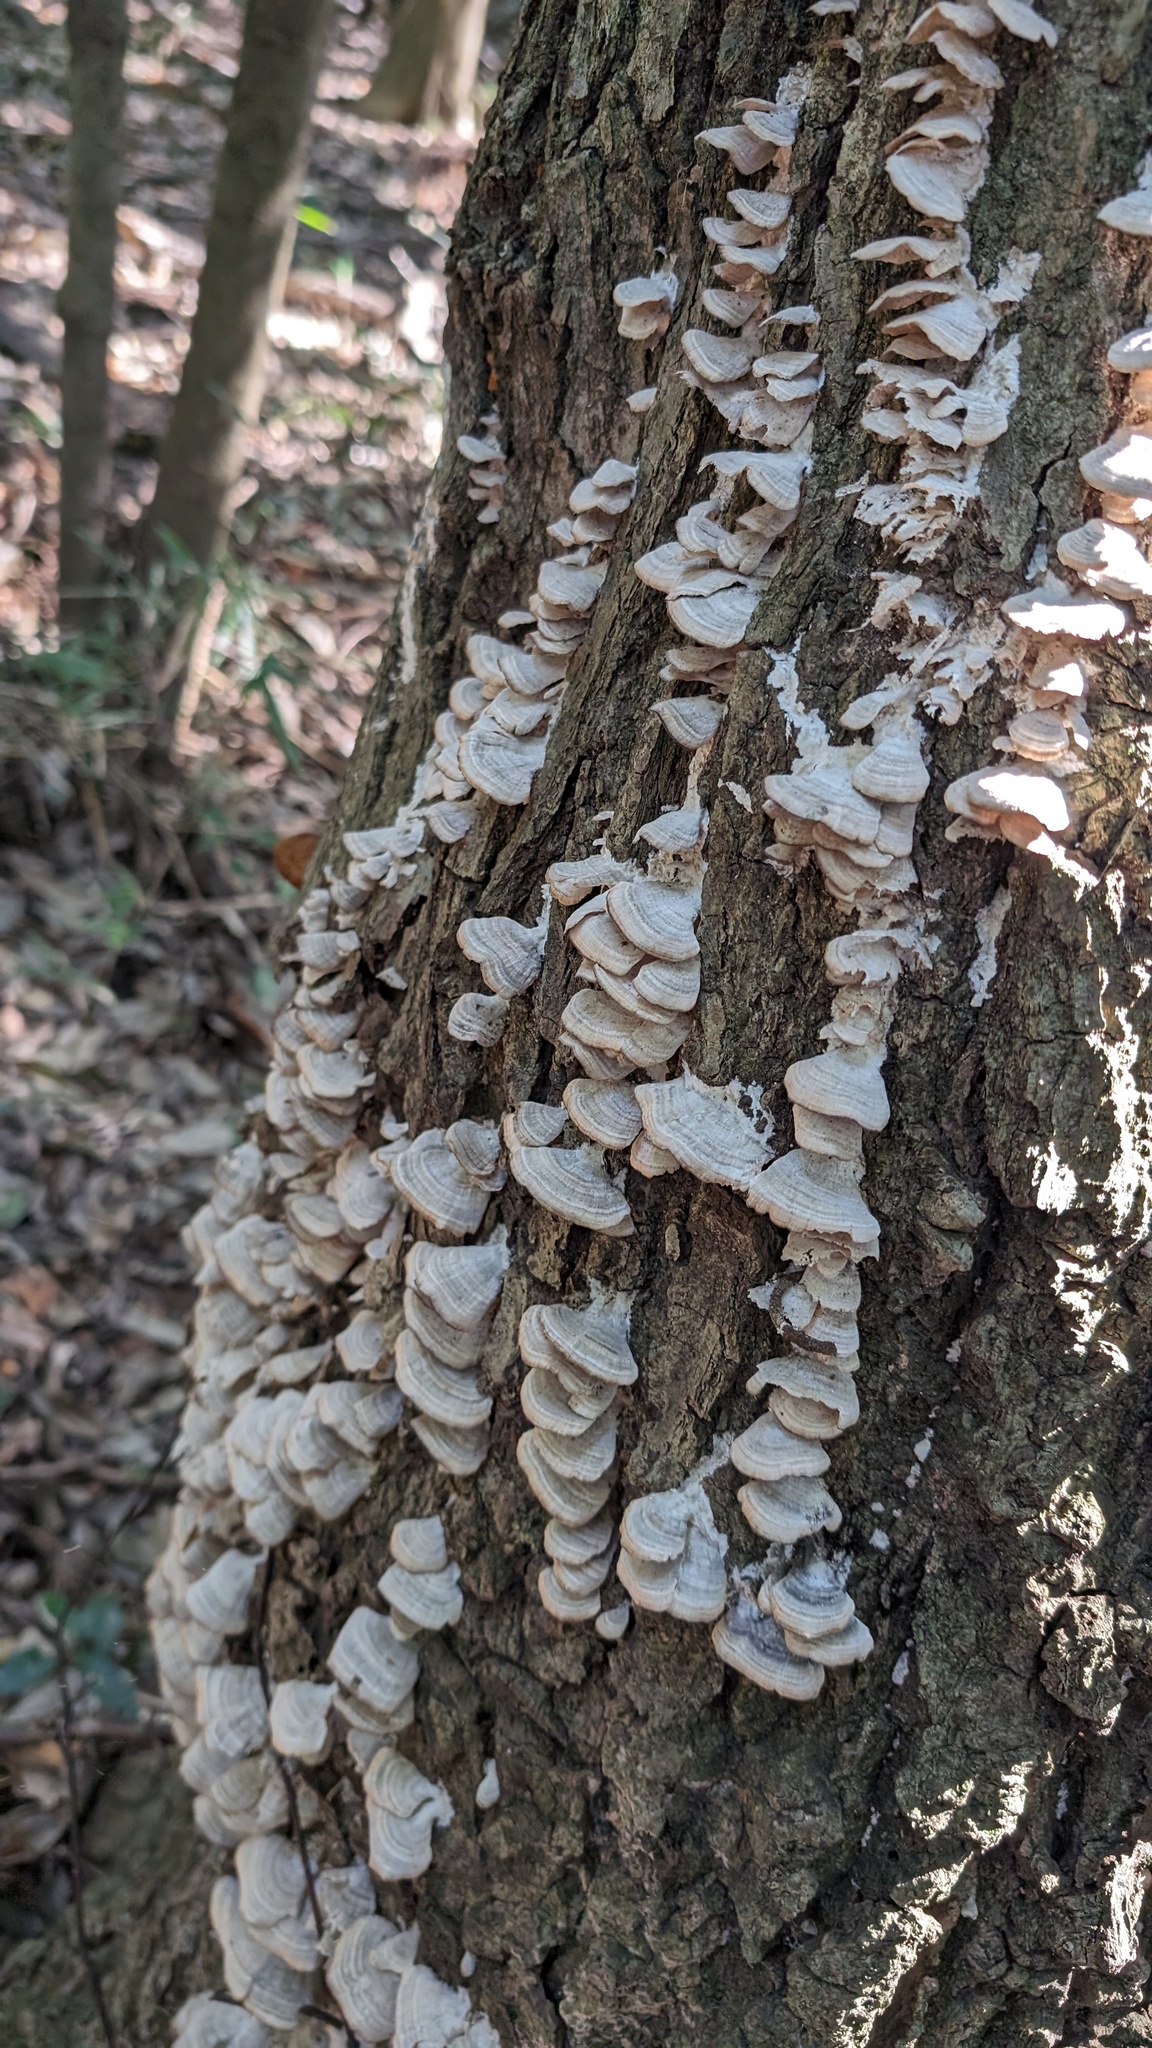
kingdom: Fungi
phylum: Basidiomycota
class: Agaricomycetes
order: Hymenochaetales
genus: Trichaptum
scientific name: Trichaptum biforme
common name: Violet-toothed polypore
